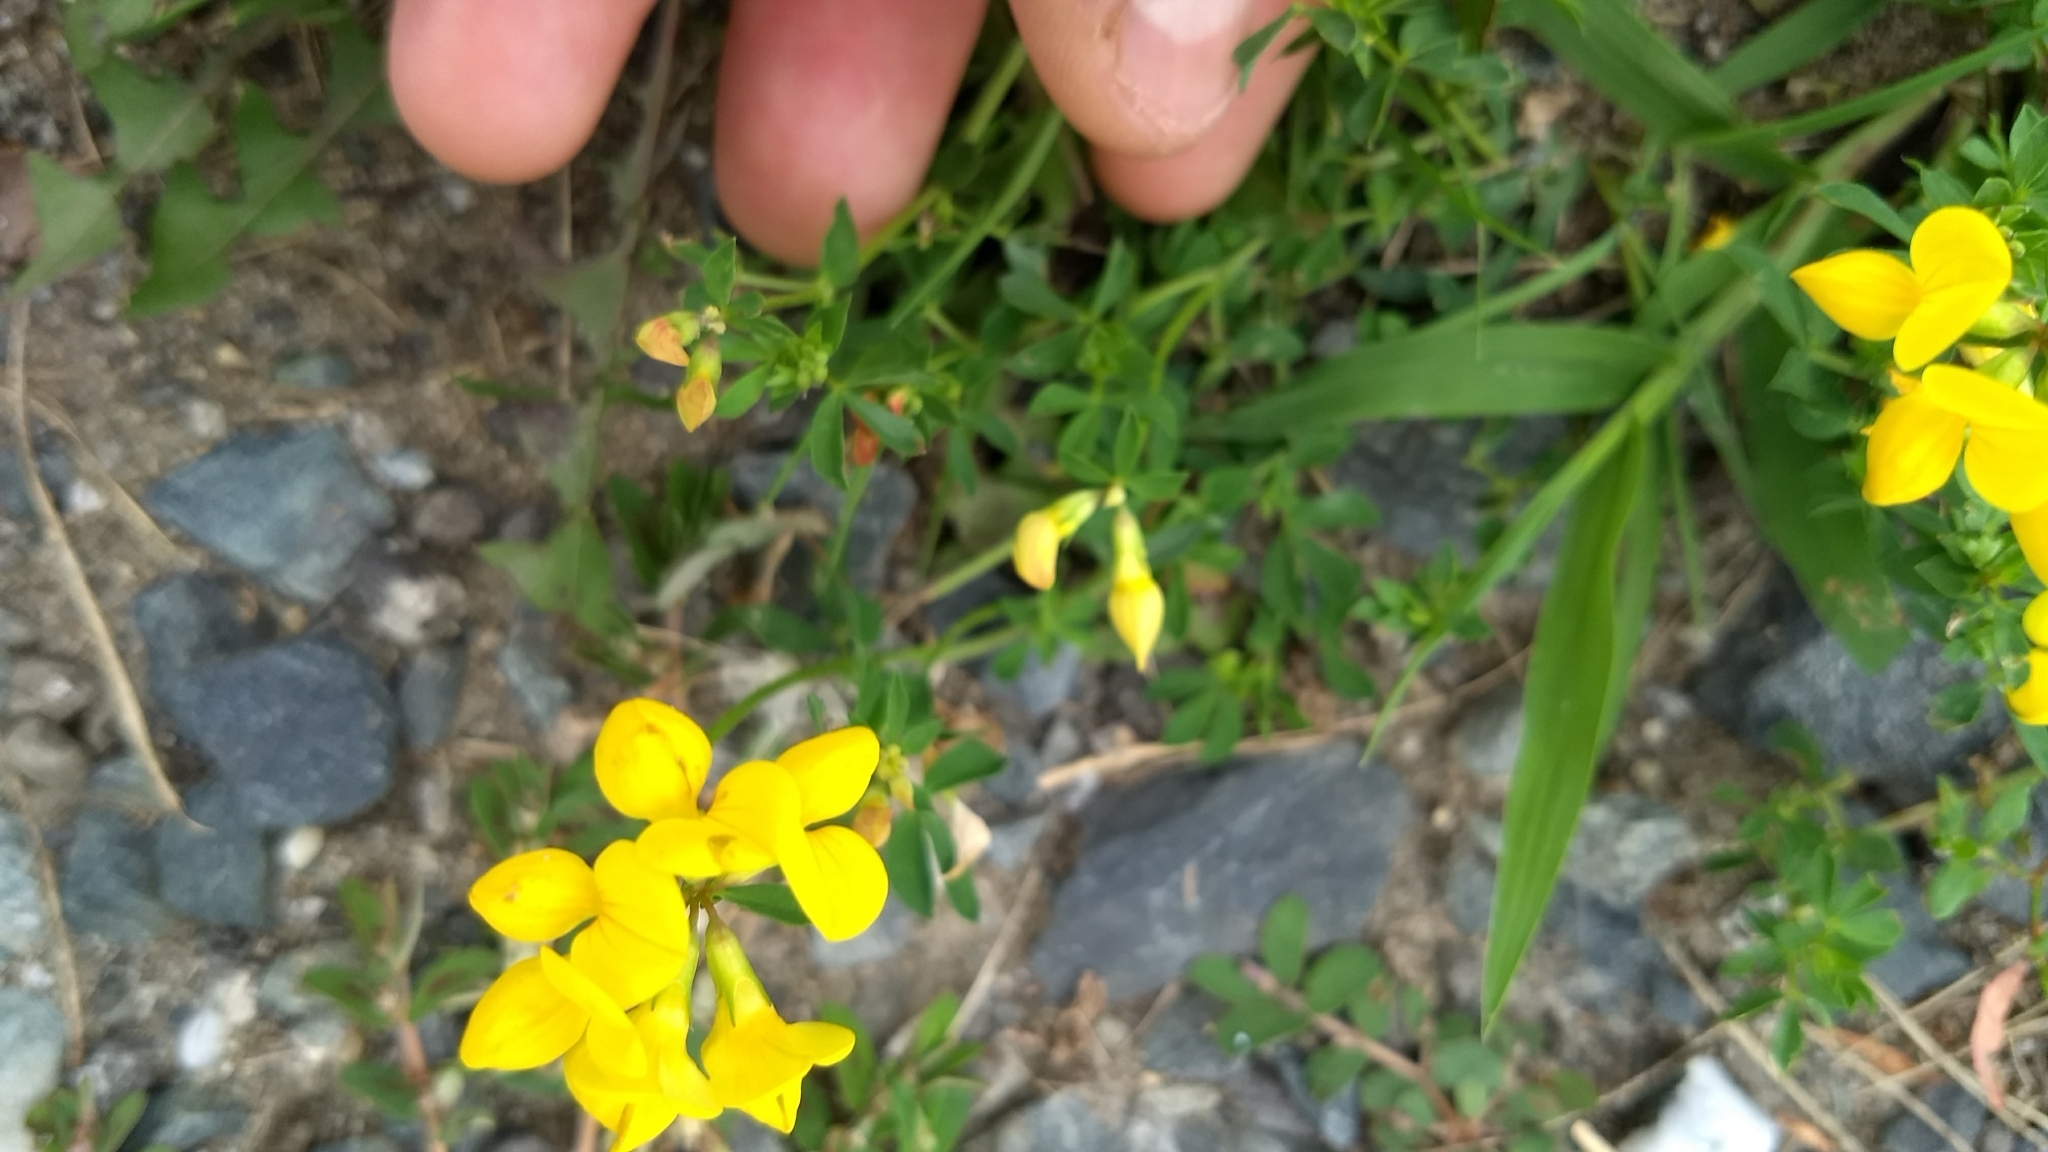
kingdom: Plantae
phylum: Tracheophyta
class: Magnoliopsida
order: Fabales
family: Fabaceae
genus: Lotus
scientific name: Lotus corniculatus
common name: Common bird's-foot-trefoil
